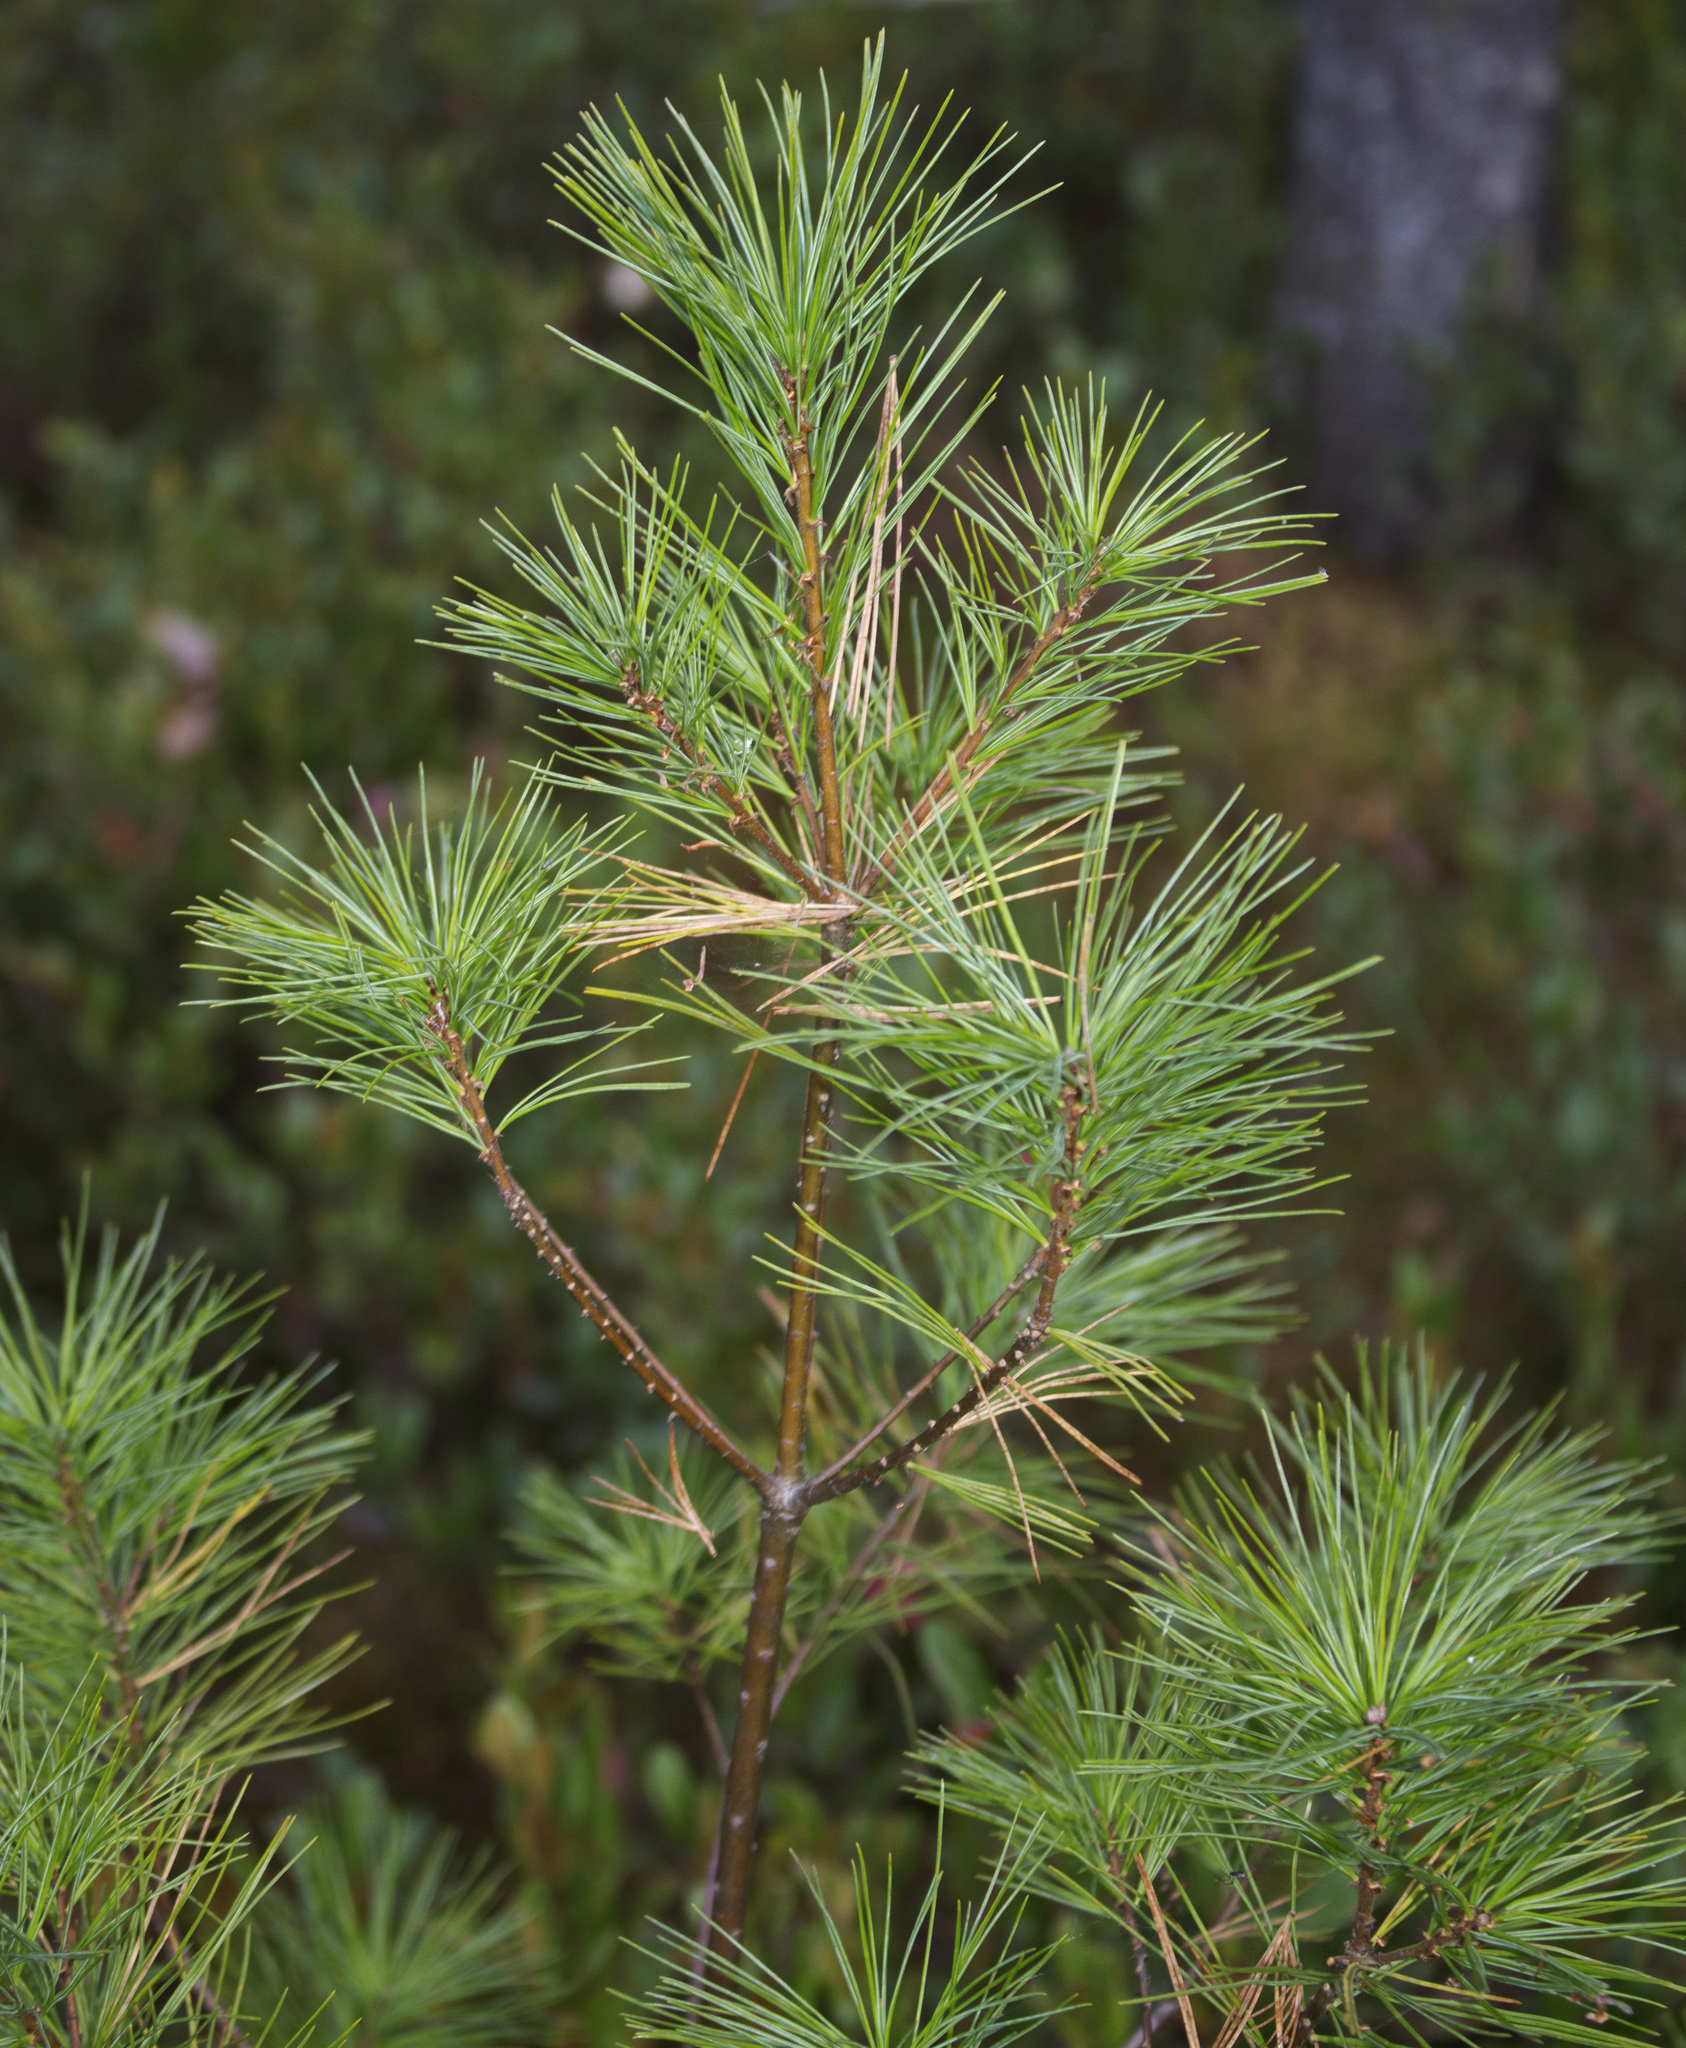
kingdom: Plantae
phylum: Tracheophyta
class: Pinopsida
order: Pinales
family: Pinaceae
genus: Pinus
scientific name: Pinus strobus
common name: Weymouth pine
